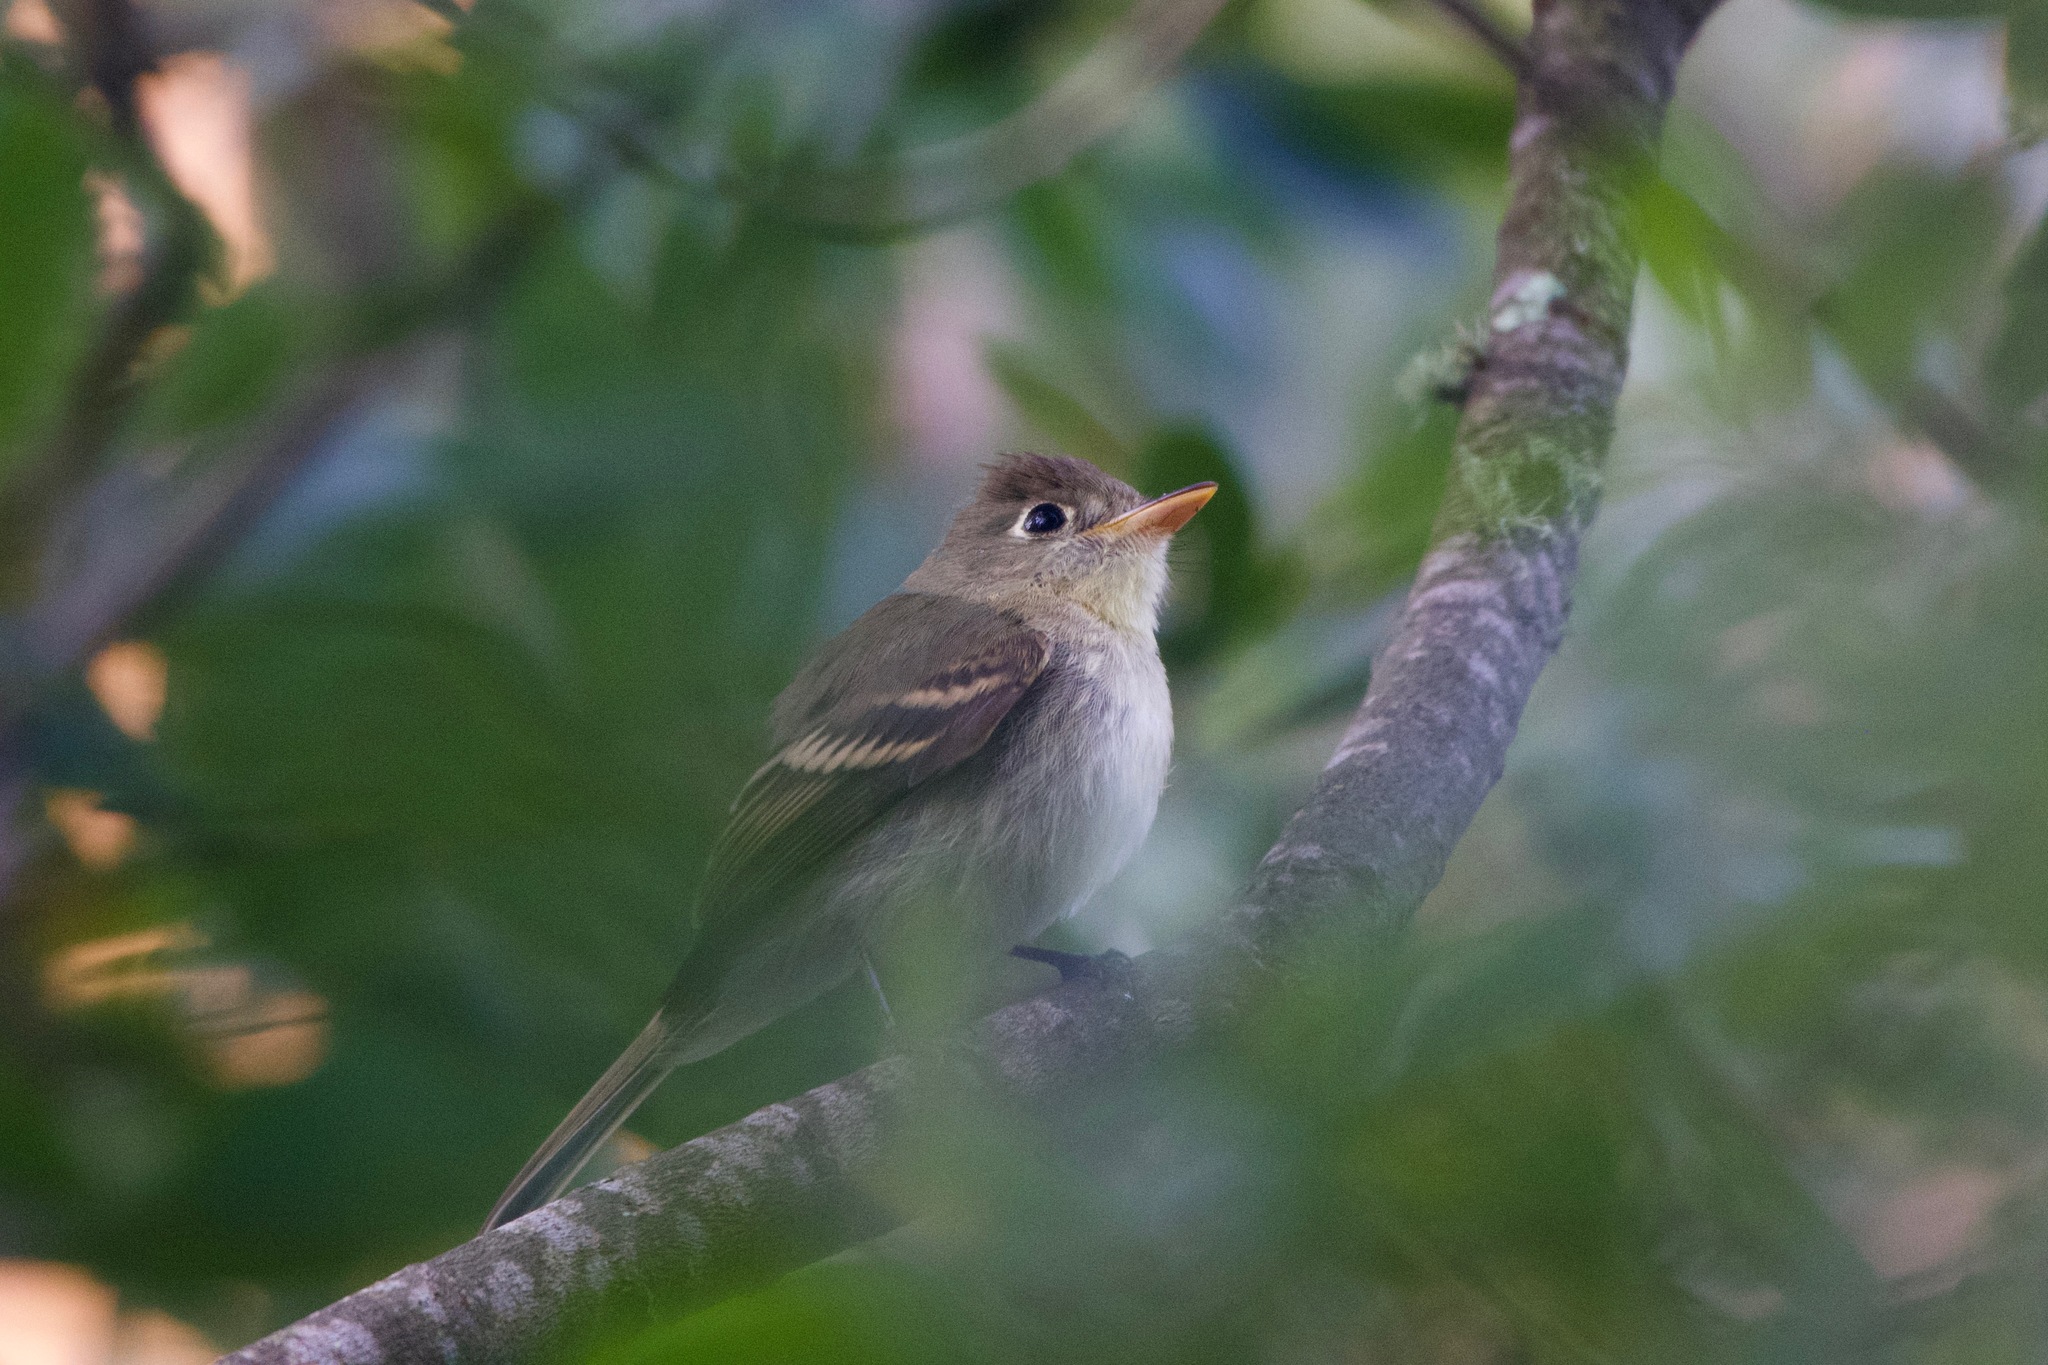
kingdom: Animalia
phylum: Chordata
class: Aves
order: Passeriformes
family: Tyrannidae
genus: Empidonax
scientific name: Empidonax difficilis
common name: Pacific-slope flycatcher
